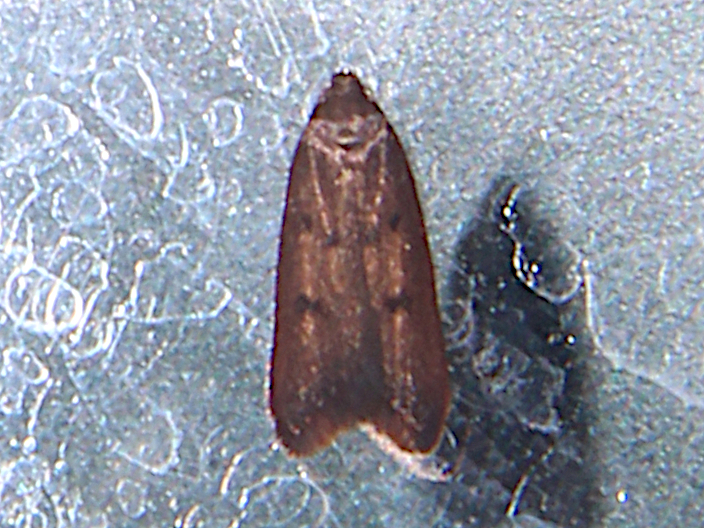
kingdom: Animalia
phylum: Arthropoda
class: Insecta
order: Lepidoptera
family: Oecophoridae
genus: Tachystola
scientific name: Tachystola acroxantha
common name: Ruddy streak
